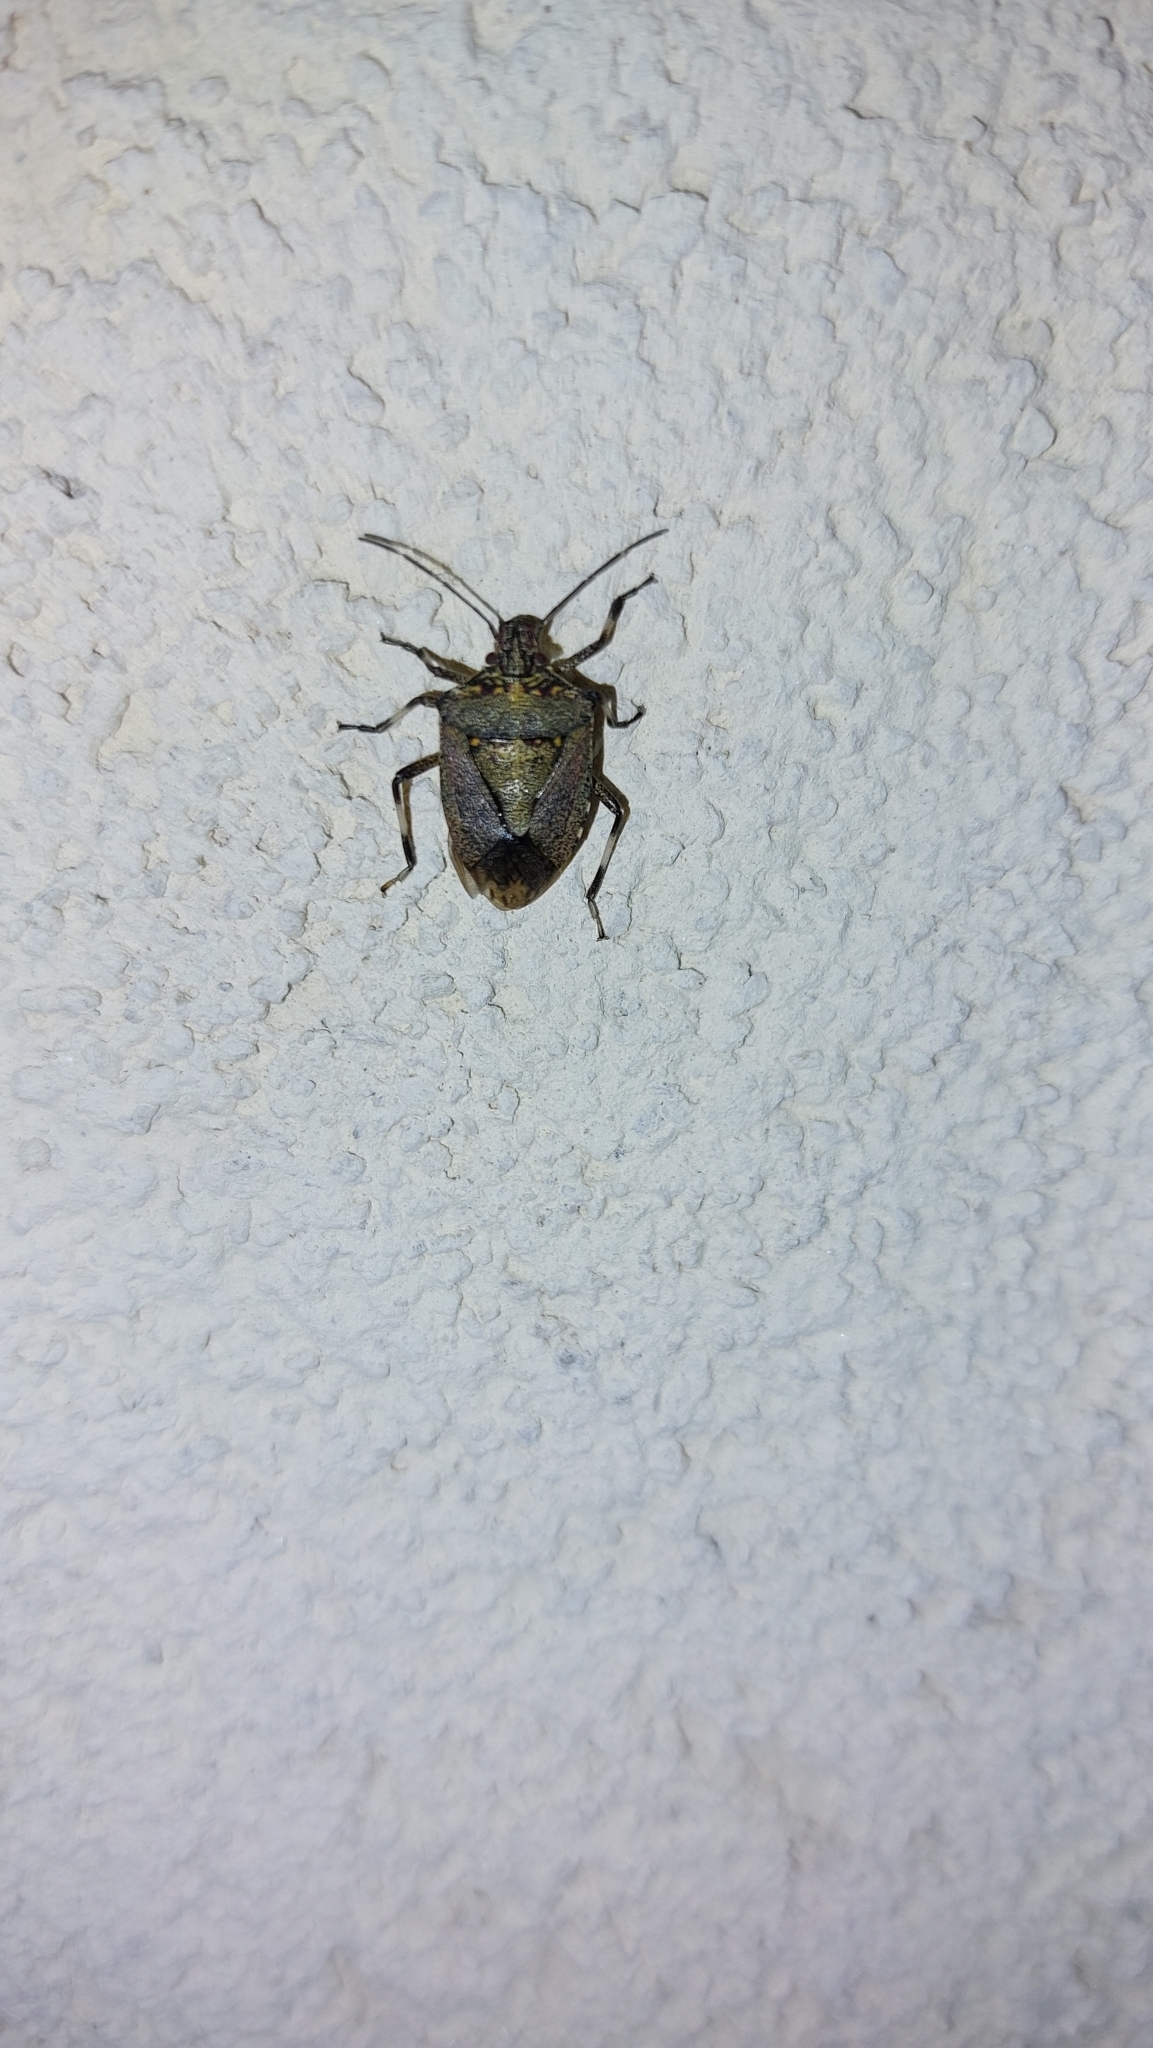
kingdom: Animalia
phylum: Arthropoda
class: Insecta
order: Hemiptera
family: Pentatomidae
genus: Halyomorpha
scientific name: Halyomorpha halys
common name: Brown marmorated stink bug
